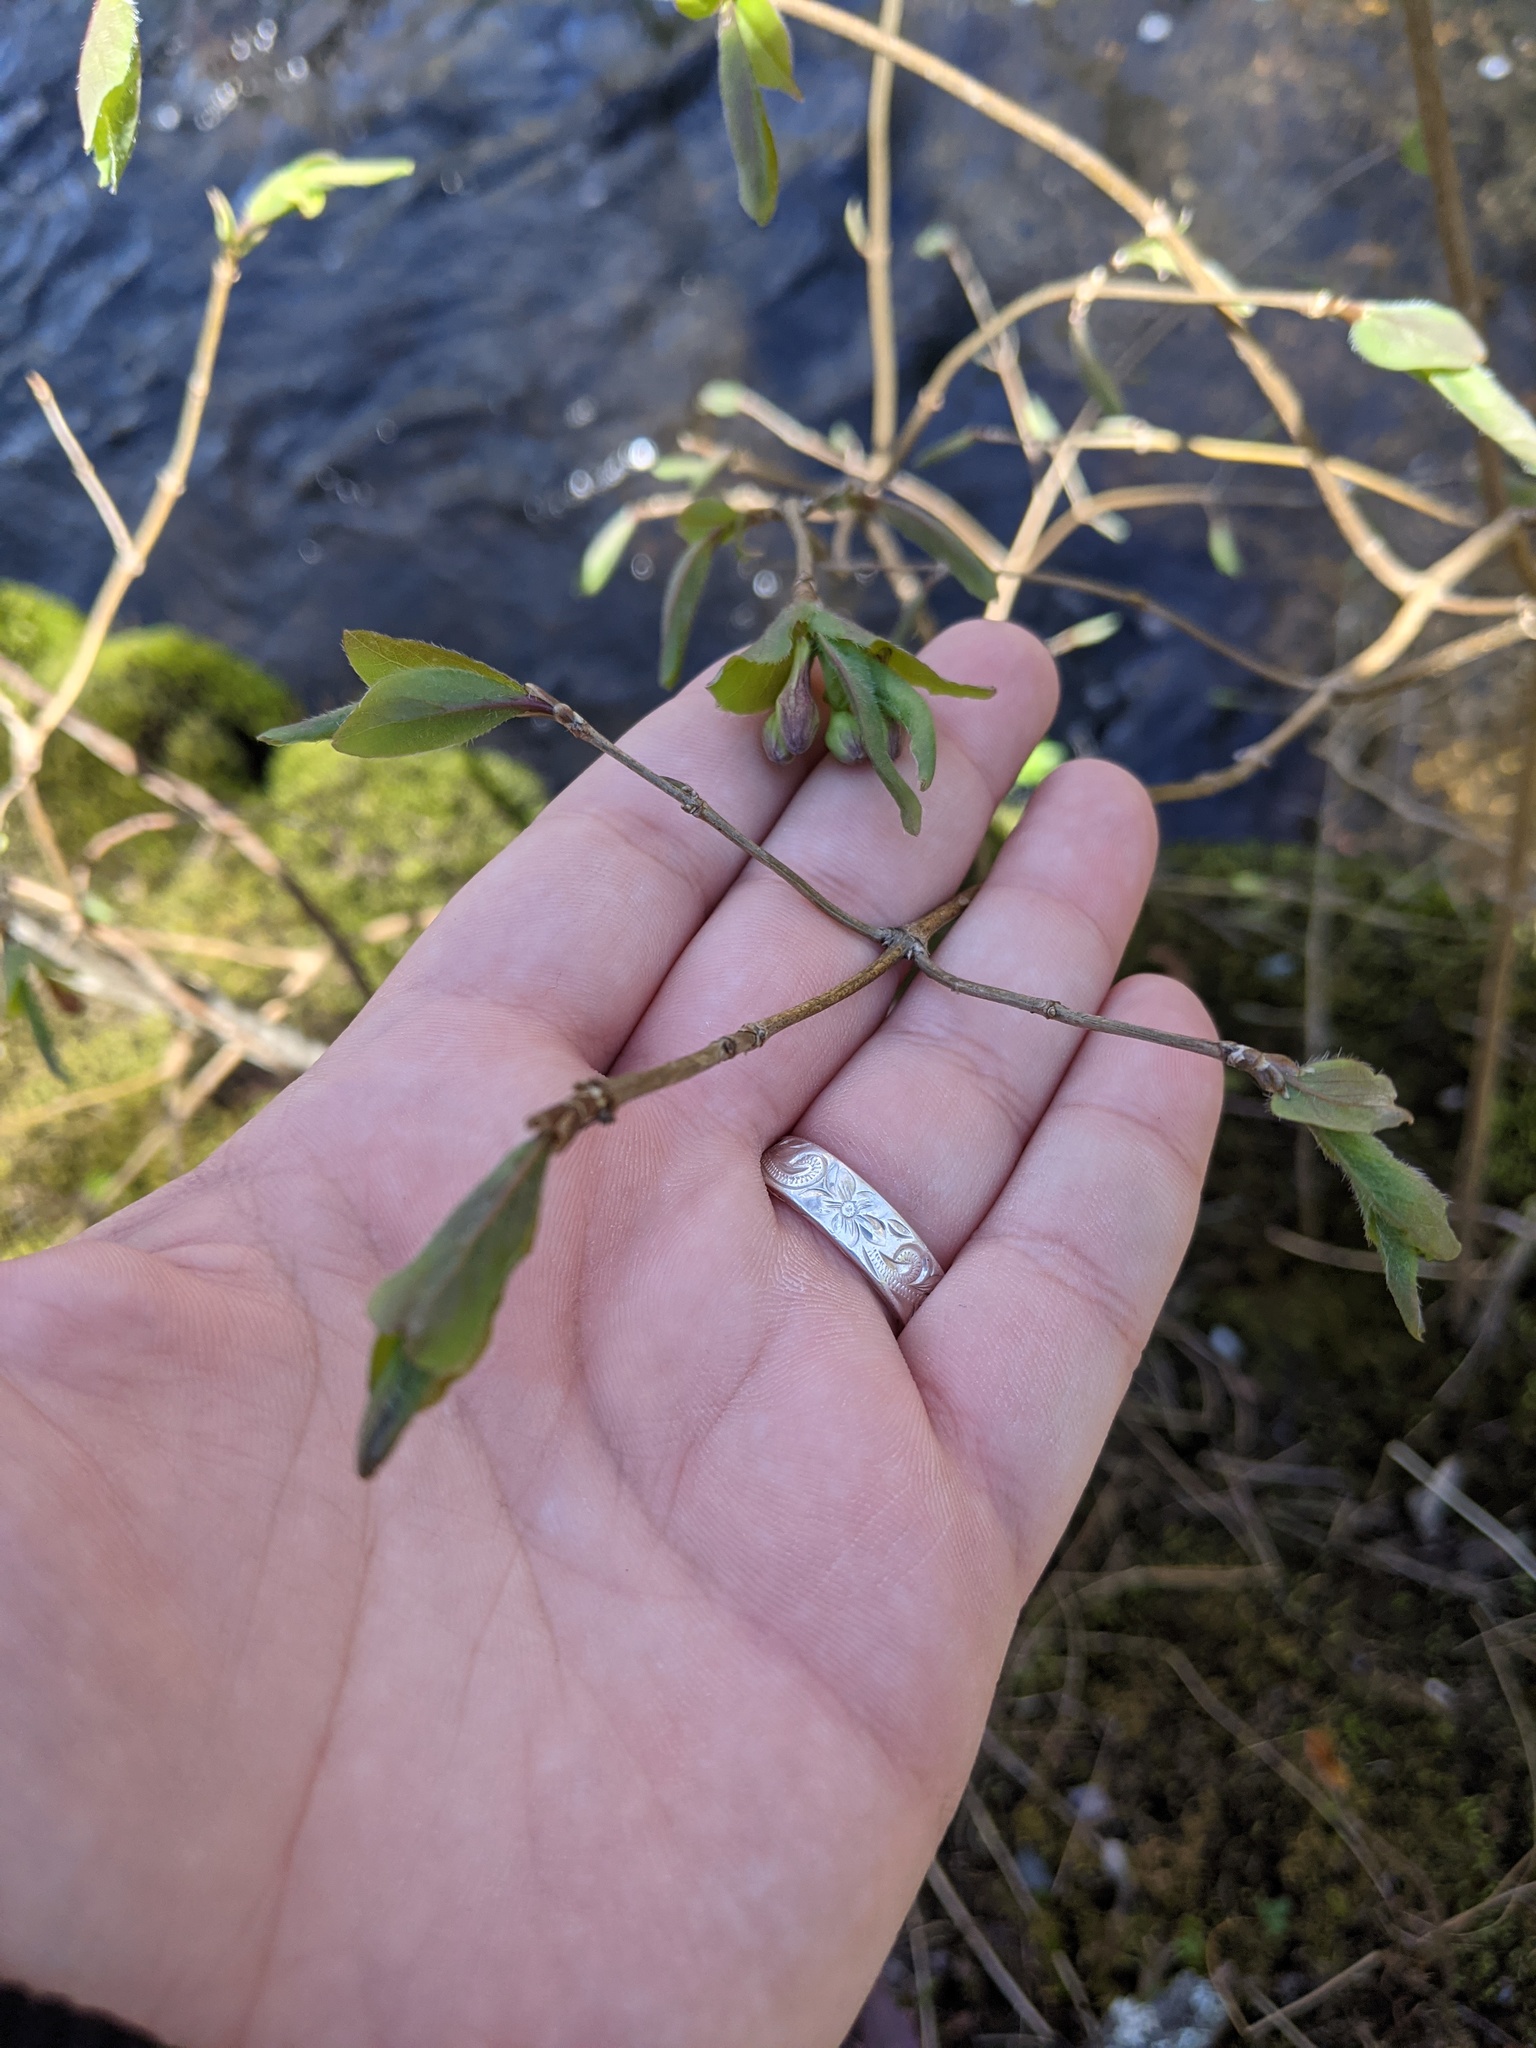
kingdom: Plantae
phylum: Tracheophyta
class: Magnoliopsida
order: Dipsacales
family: Caprifoliaceae
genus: Lonicera
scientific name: Lonicera canadensis
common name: American fly-honeysuckle
